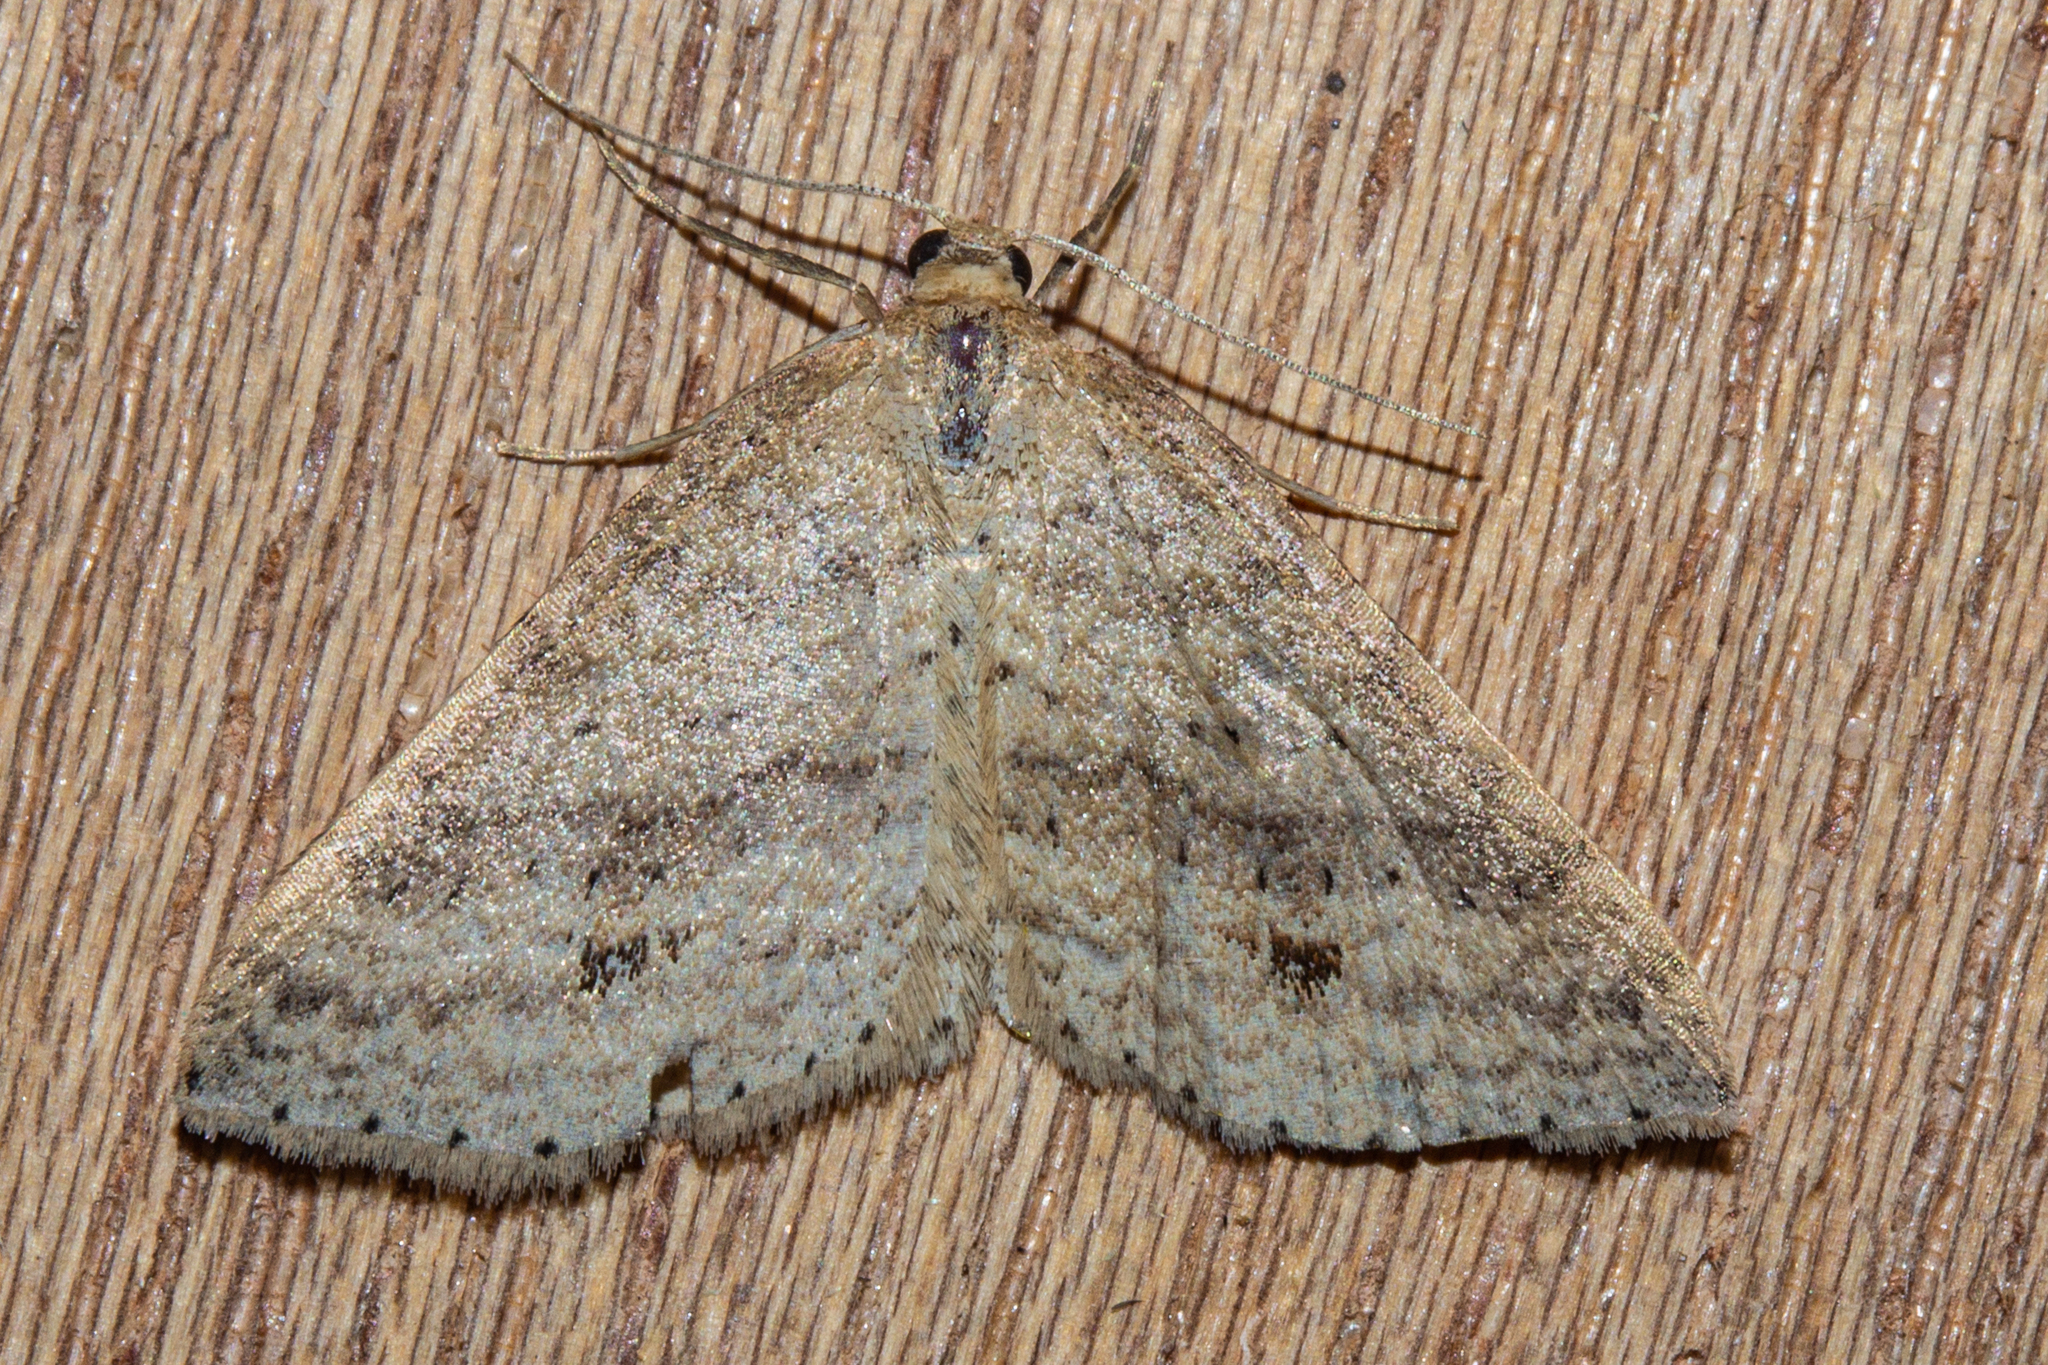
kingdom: Animalia
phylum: Arthropoda
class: Insecta
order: Lepidoptera
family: Geometridae
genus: Epicyme
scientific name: Epicyme rubropunctaria
